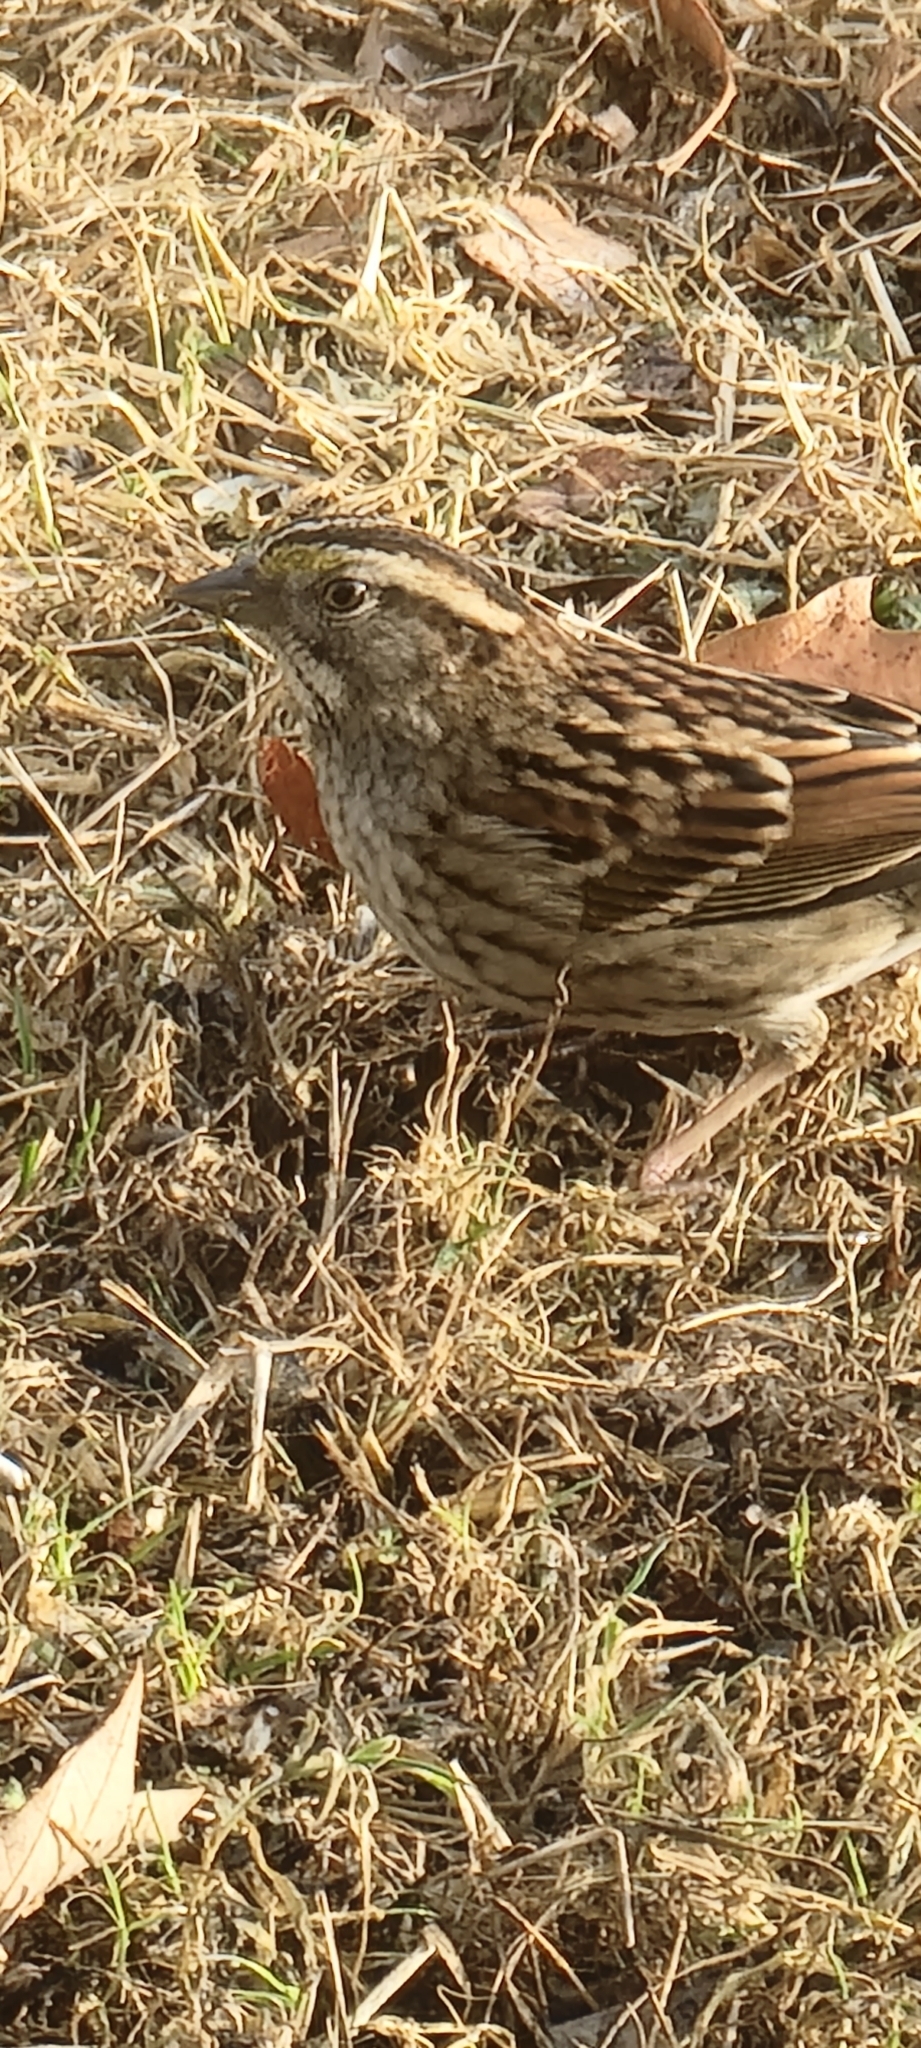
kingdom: Animalia
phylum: Chordata
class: Aves
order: Passeriformes
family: Passerellidae
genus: Zonotrichia
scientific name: Zonotrichia albicollis
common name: White-throated sparrow
